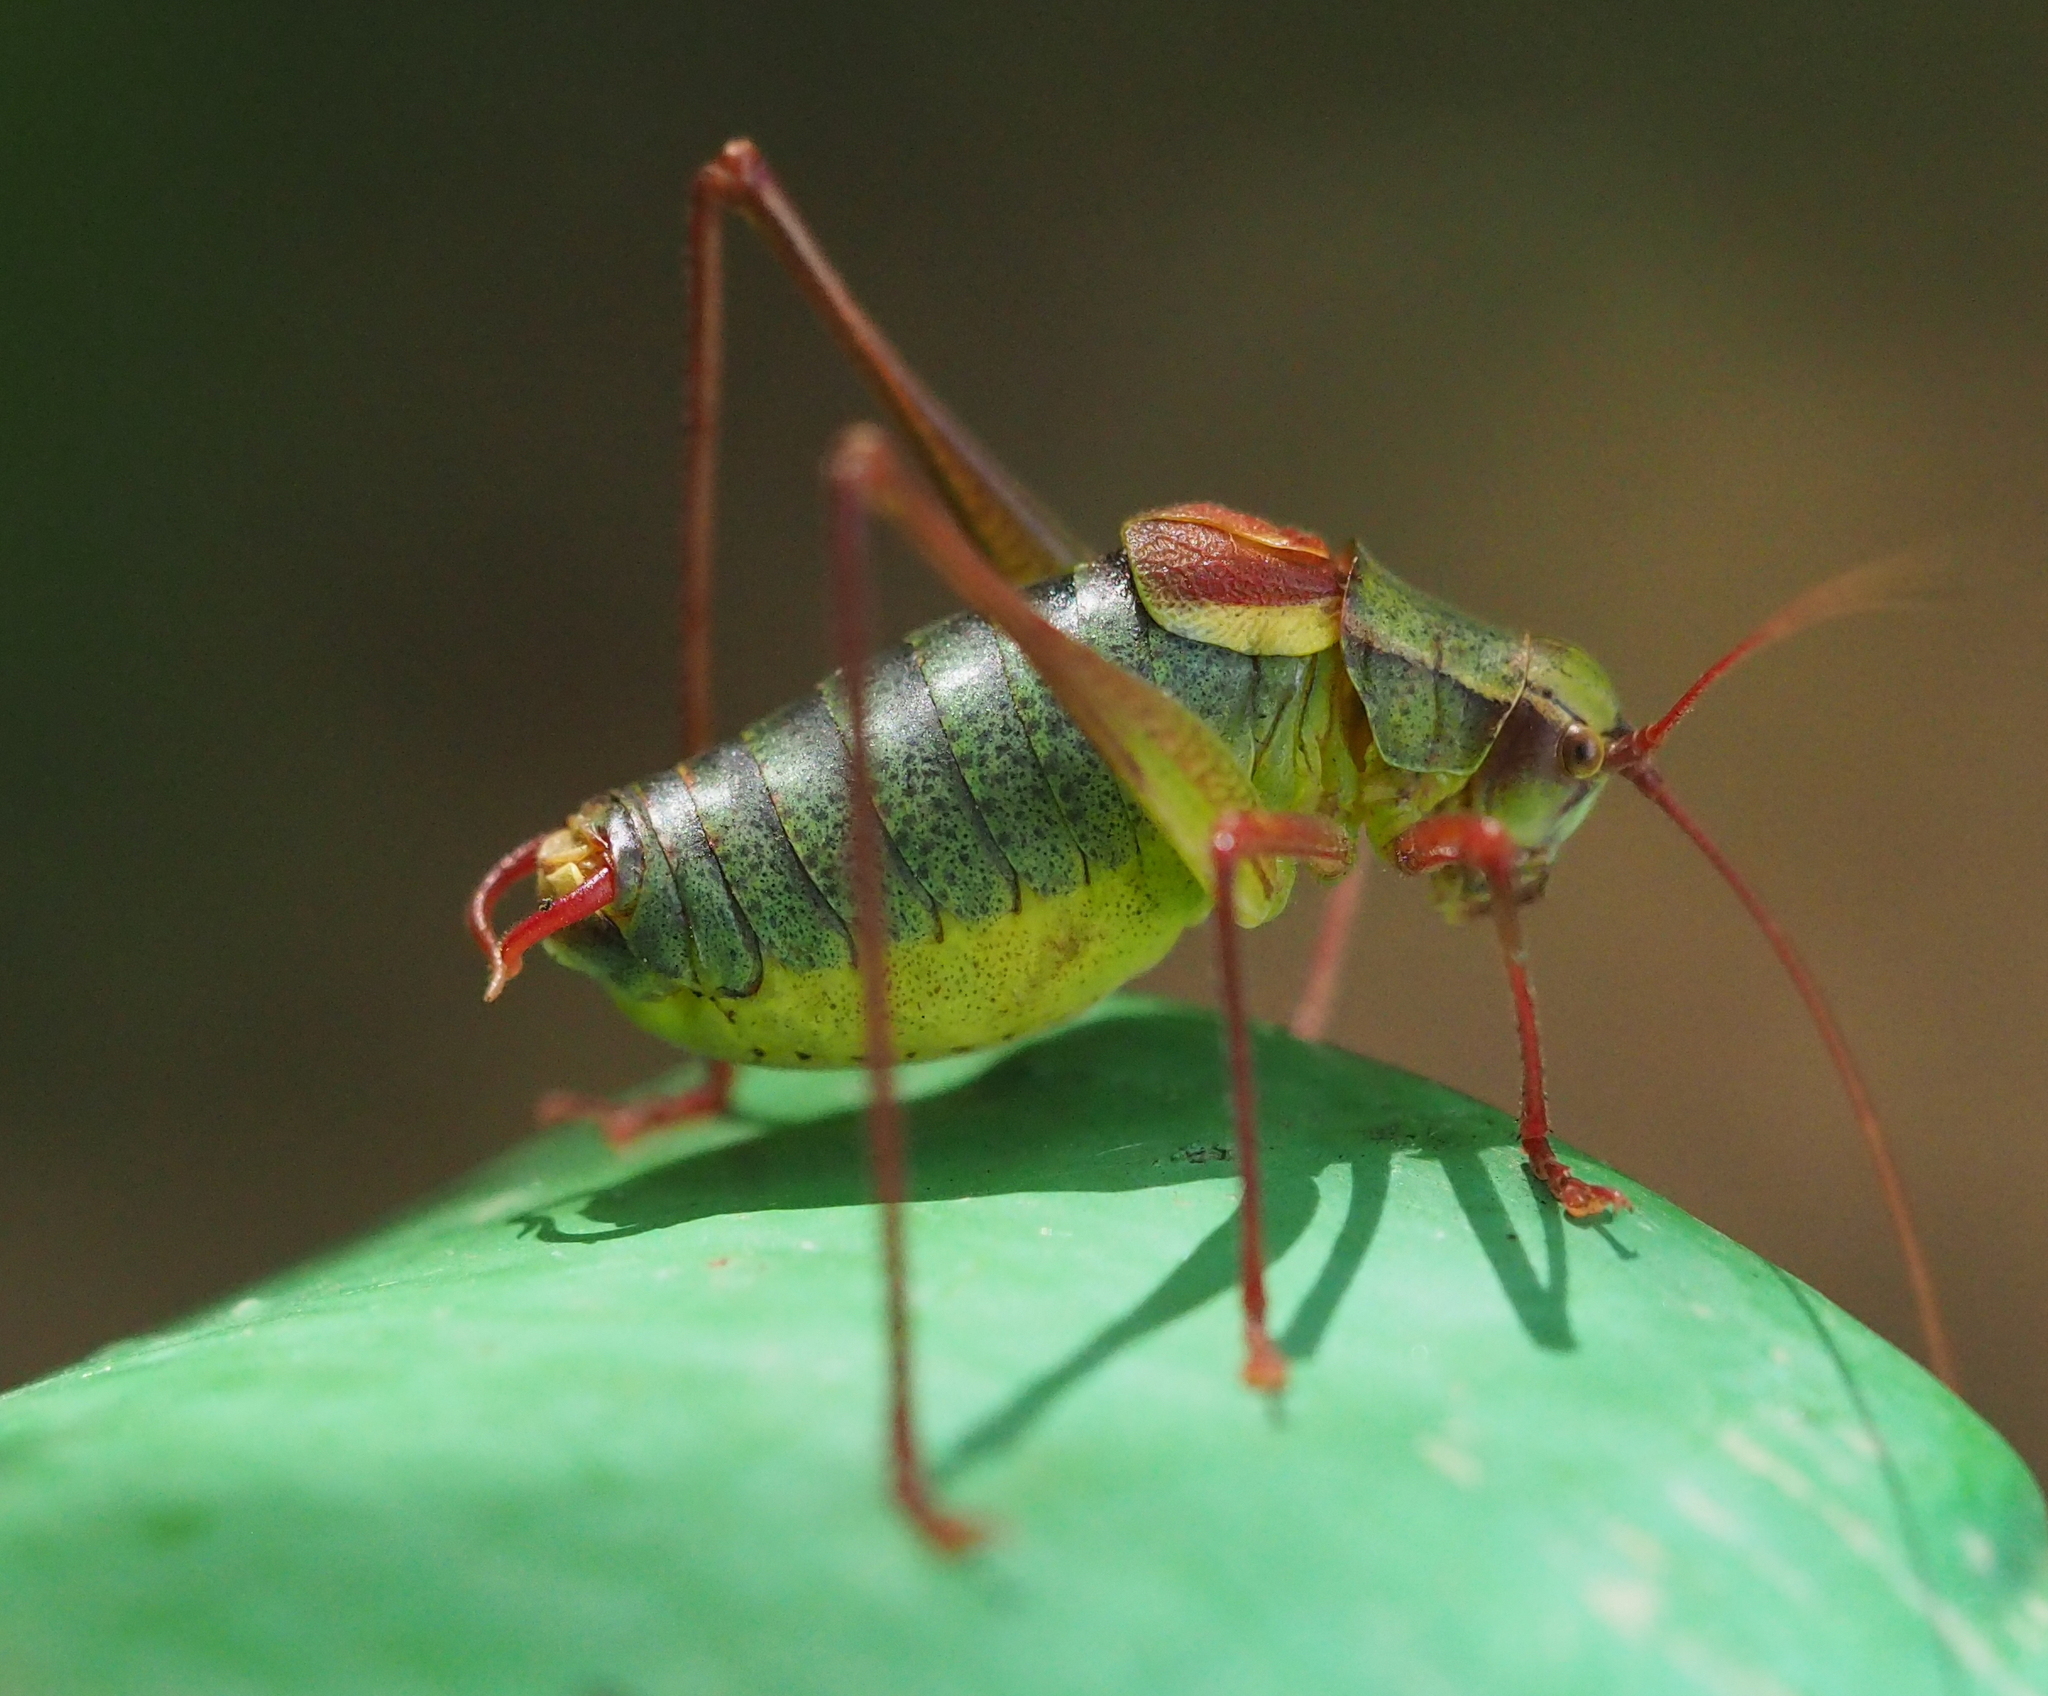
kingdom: Animalia
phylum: Arthropoda
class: Insecta
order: Orthoptera
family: Tettigoniidae
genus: Barbitistes
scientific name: Barbitistes serricauda
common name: Saw-tailed bush-cricket
